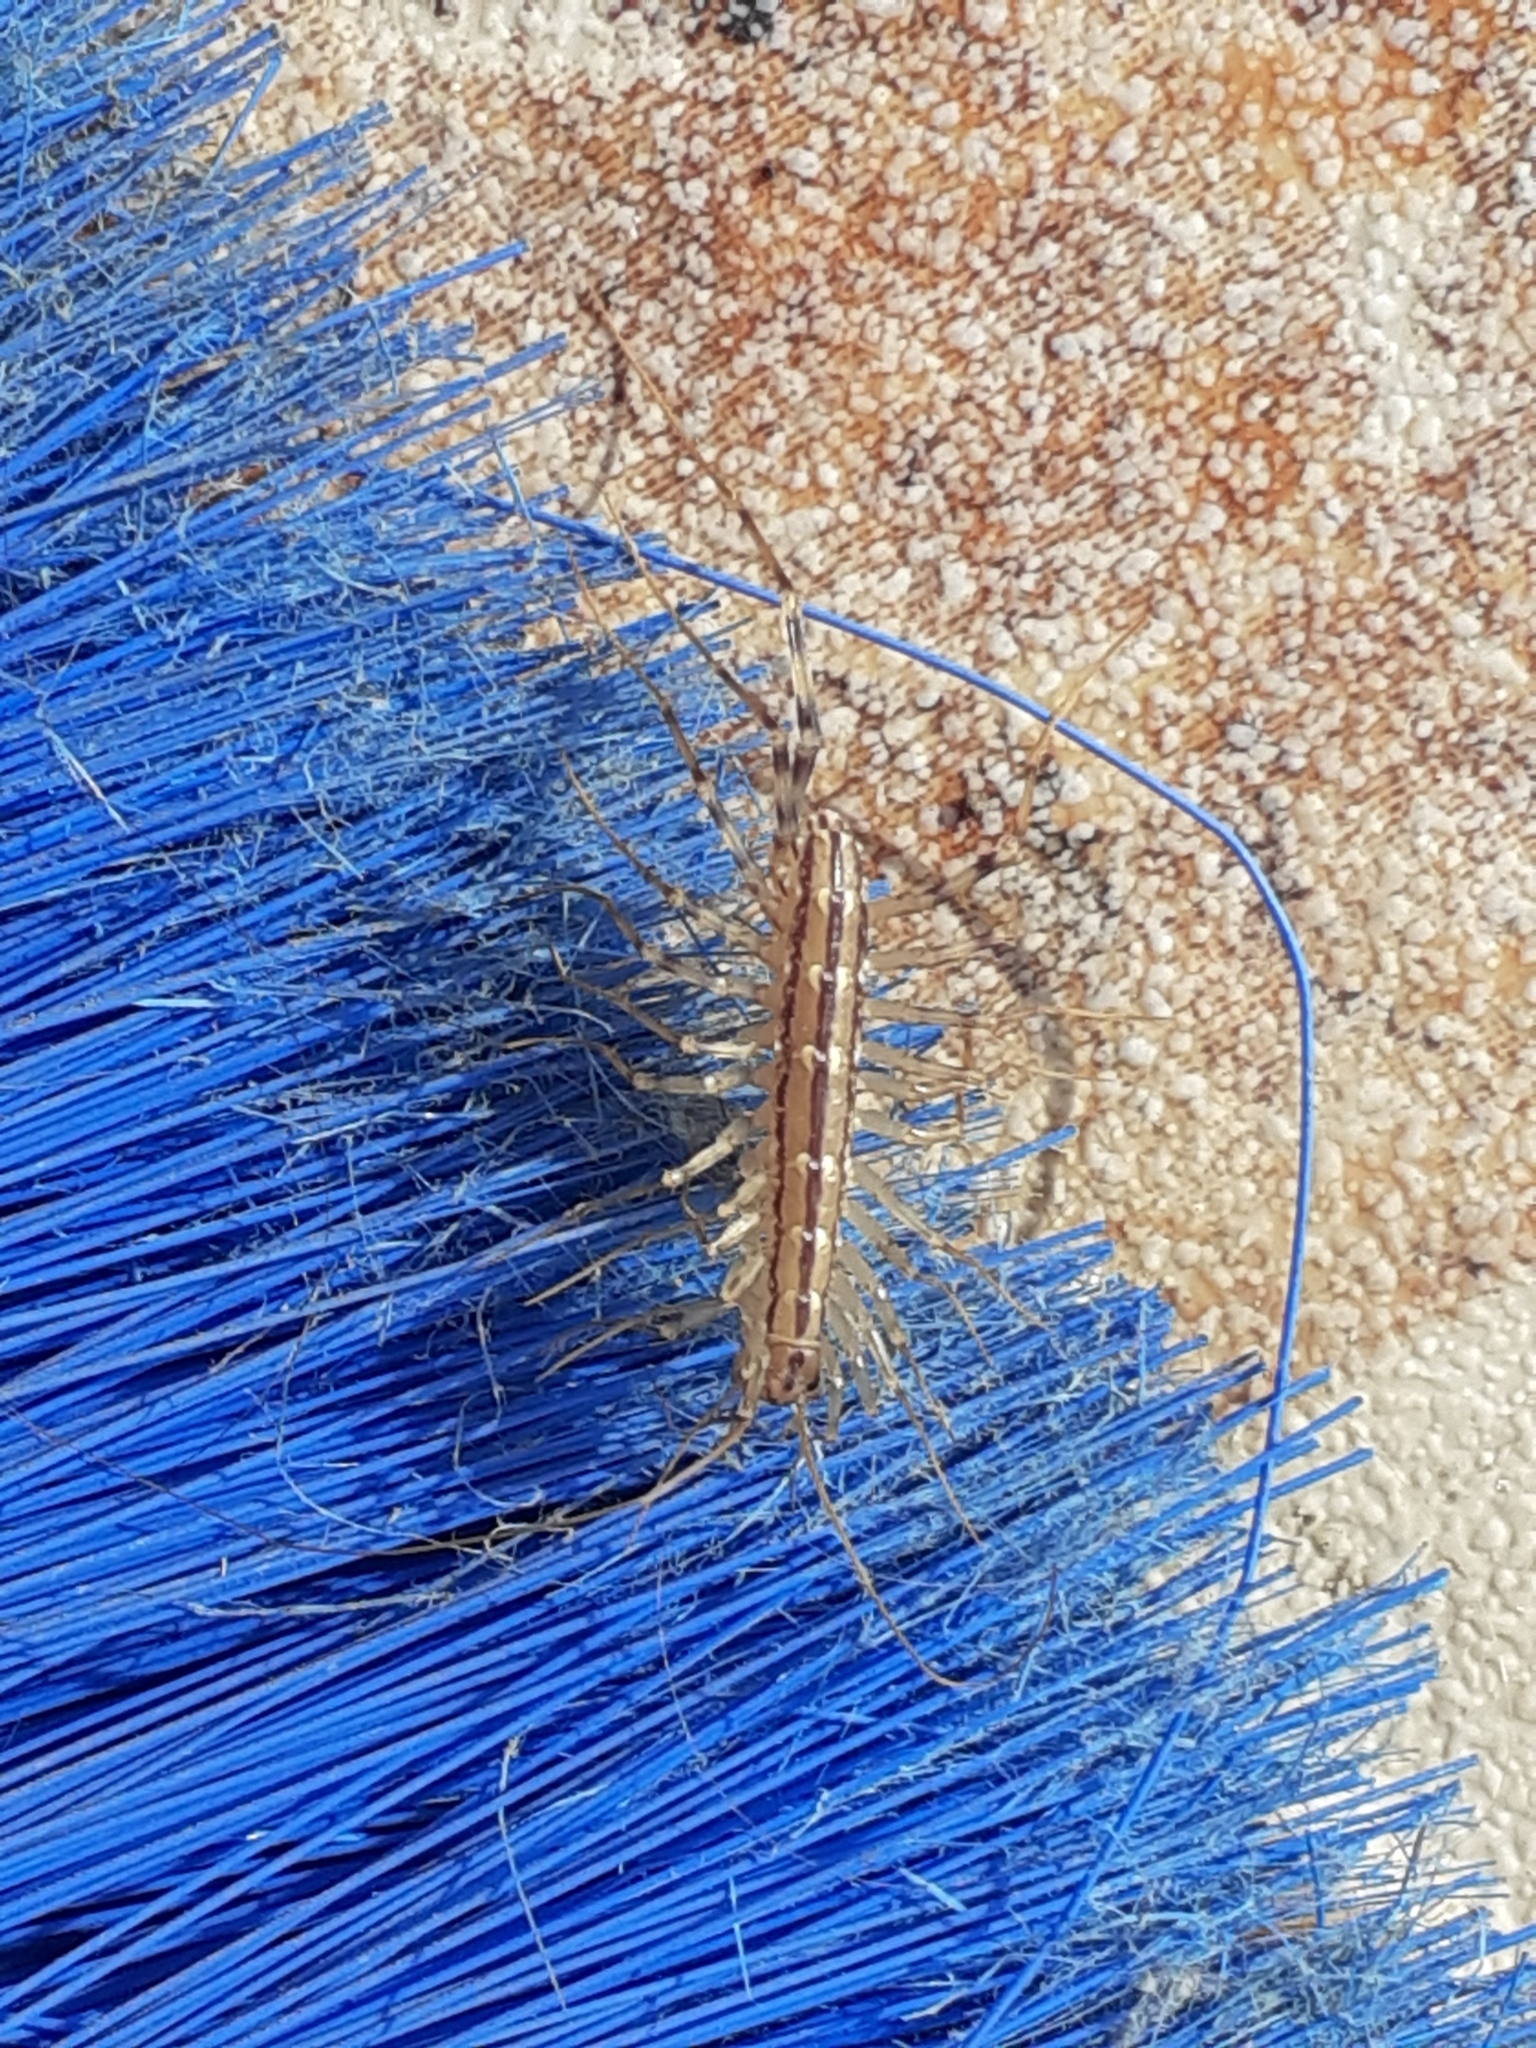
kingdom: Animalia
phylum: Arthropoda
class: Chilopoda
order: Scutigeromorpha
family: Scutigeridae
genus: Scutigera
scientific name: Scutigera coleoptrata
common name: House centipede
